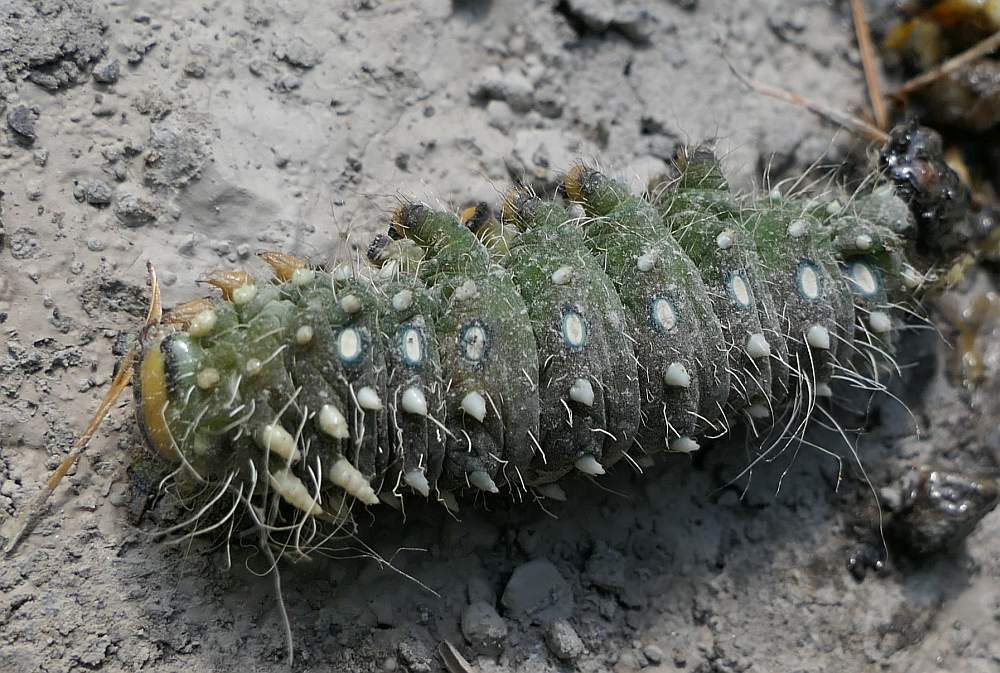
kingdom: Animalia
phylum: Arthropoda
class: Insecta
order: Lepidoptera
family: Saturniidae
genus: Eacles
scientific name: Eacles
